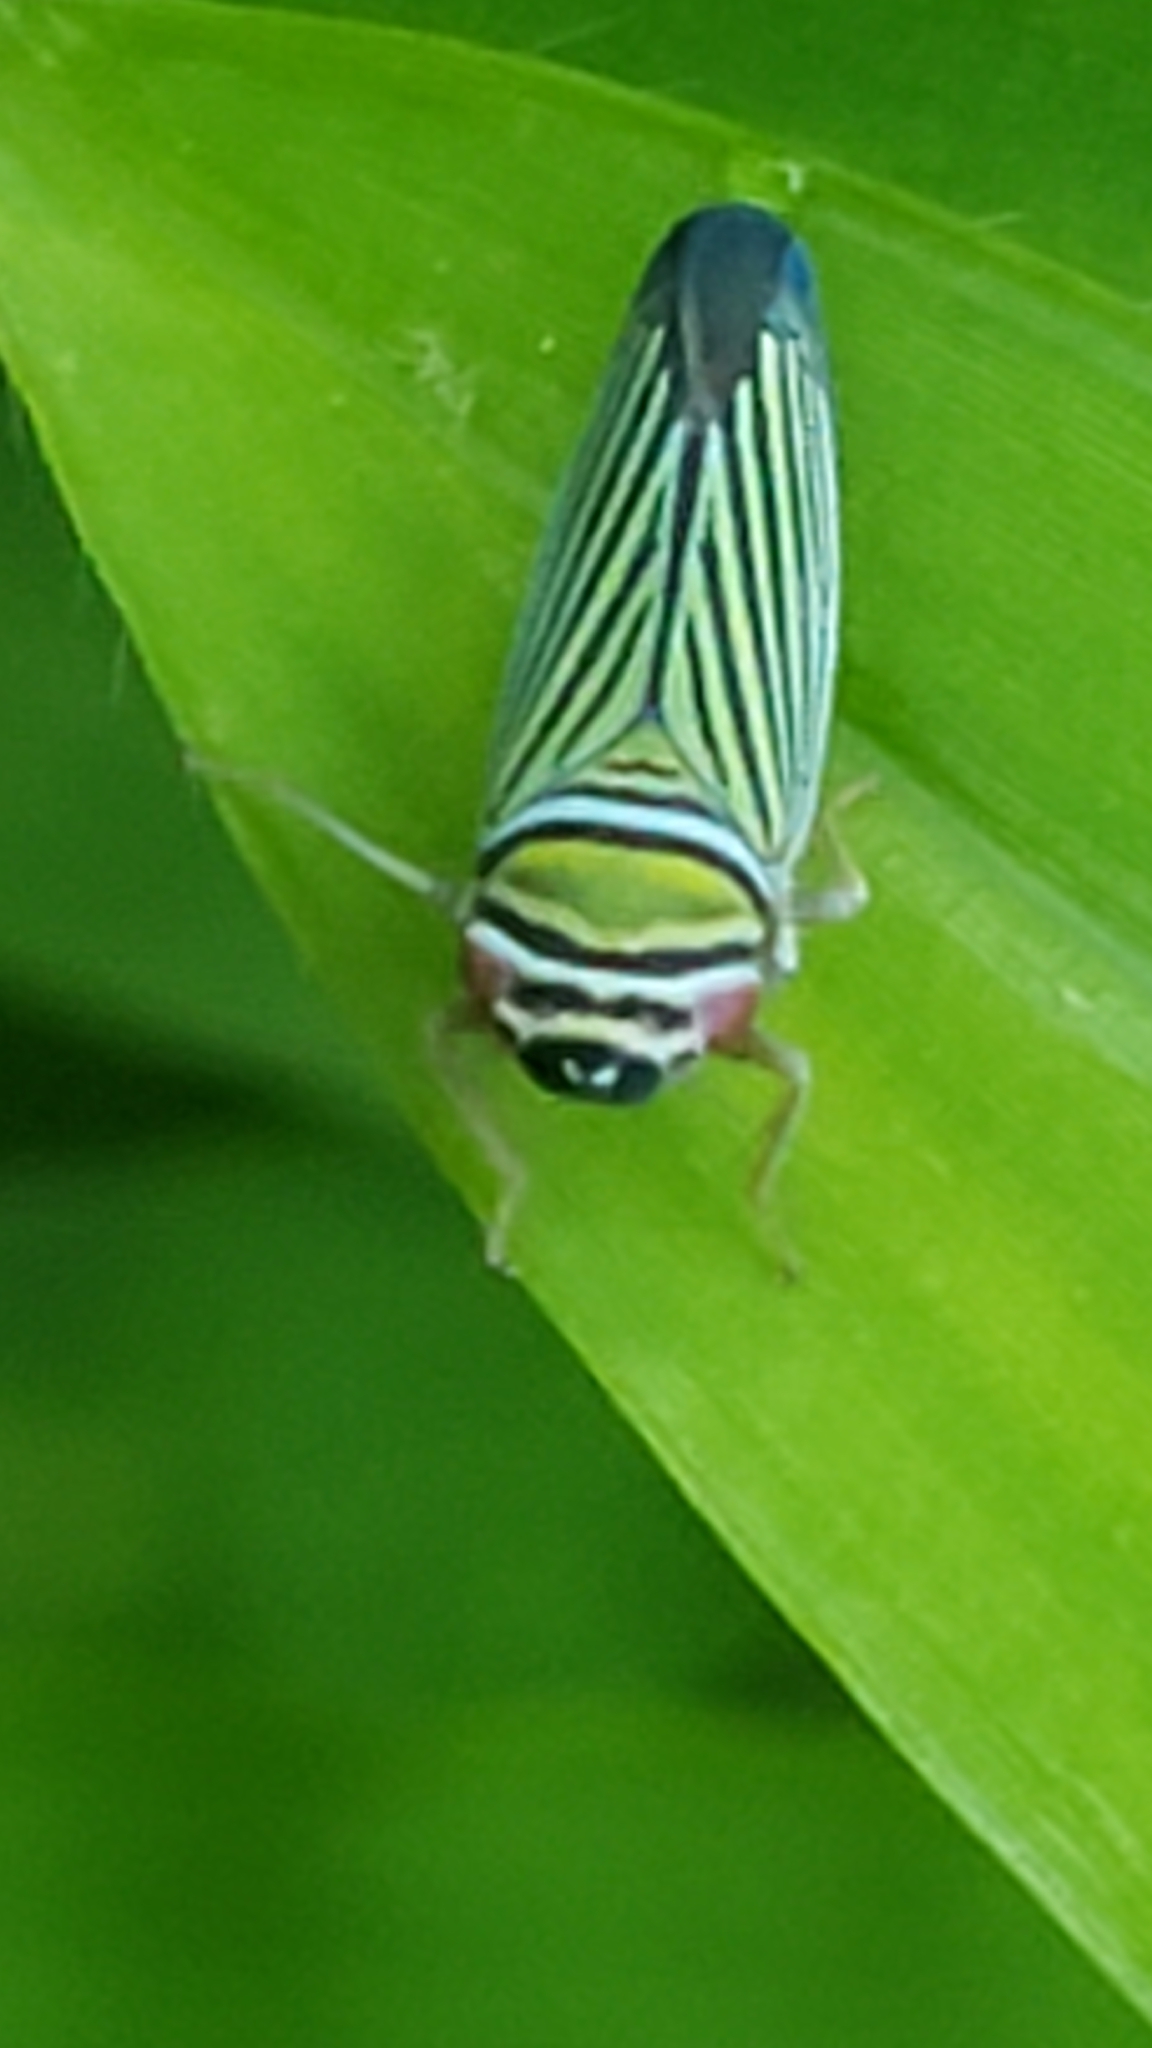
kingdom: Animalia
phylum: Arthropoda
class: Insecta
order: Hemiptera
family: Cicadellidae
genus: Tylozygus
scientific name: Tylozygus bifidus
